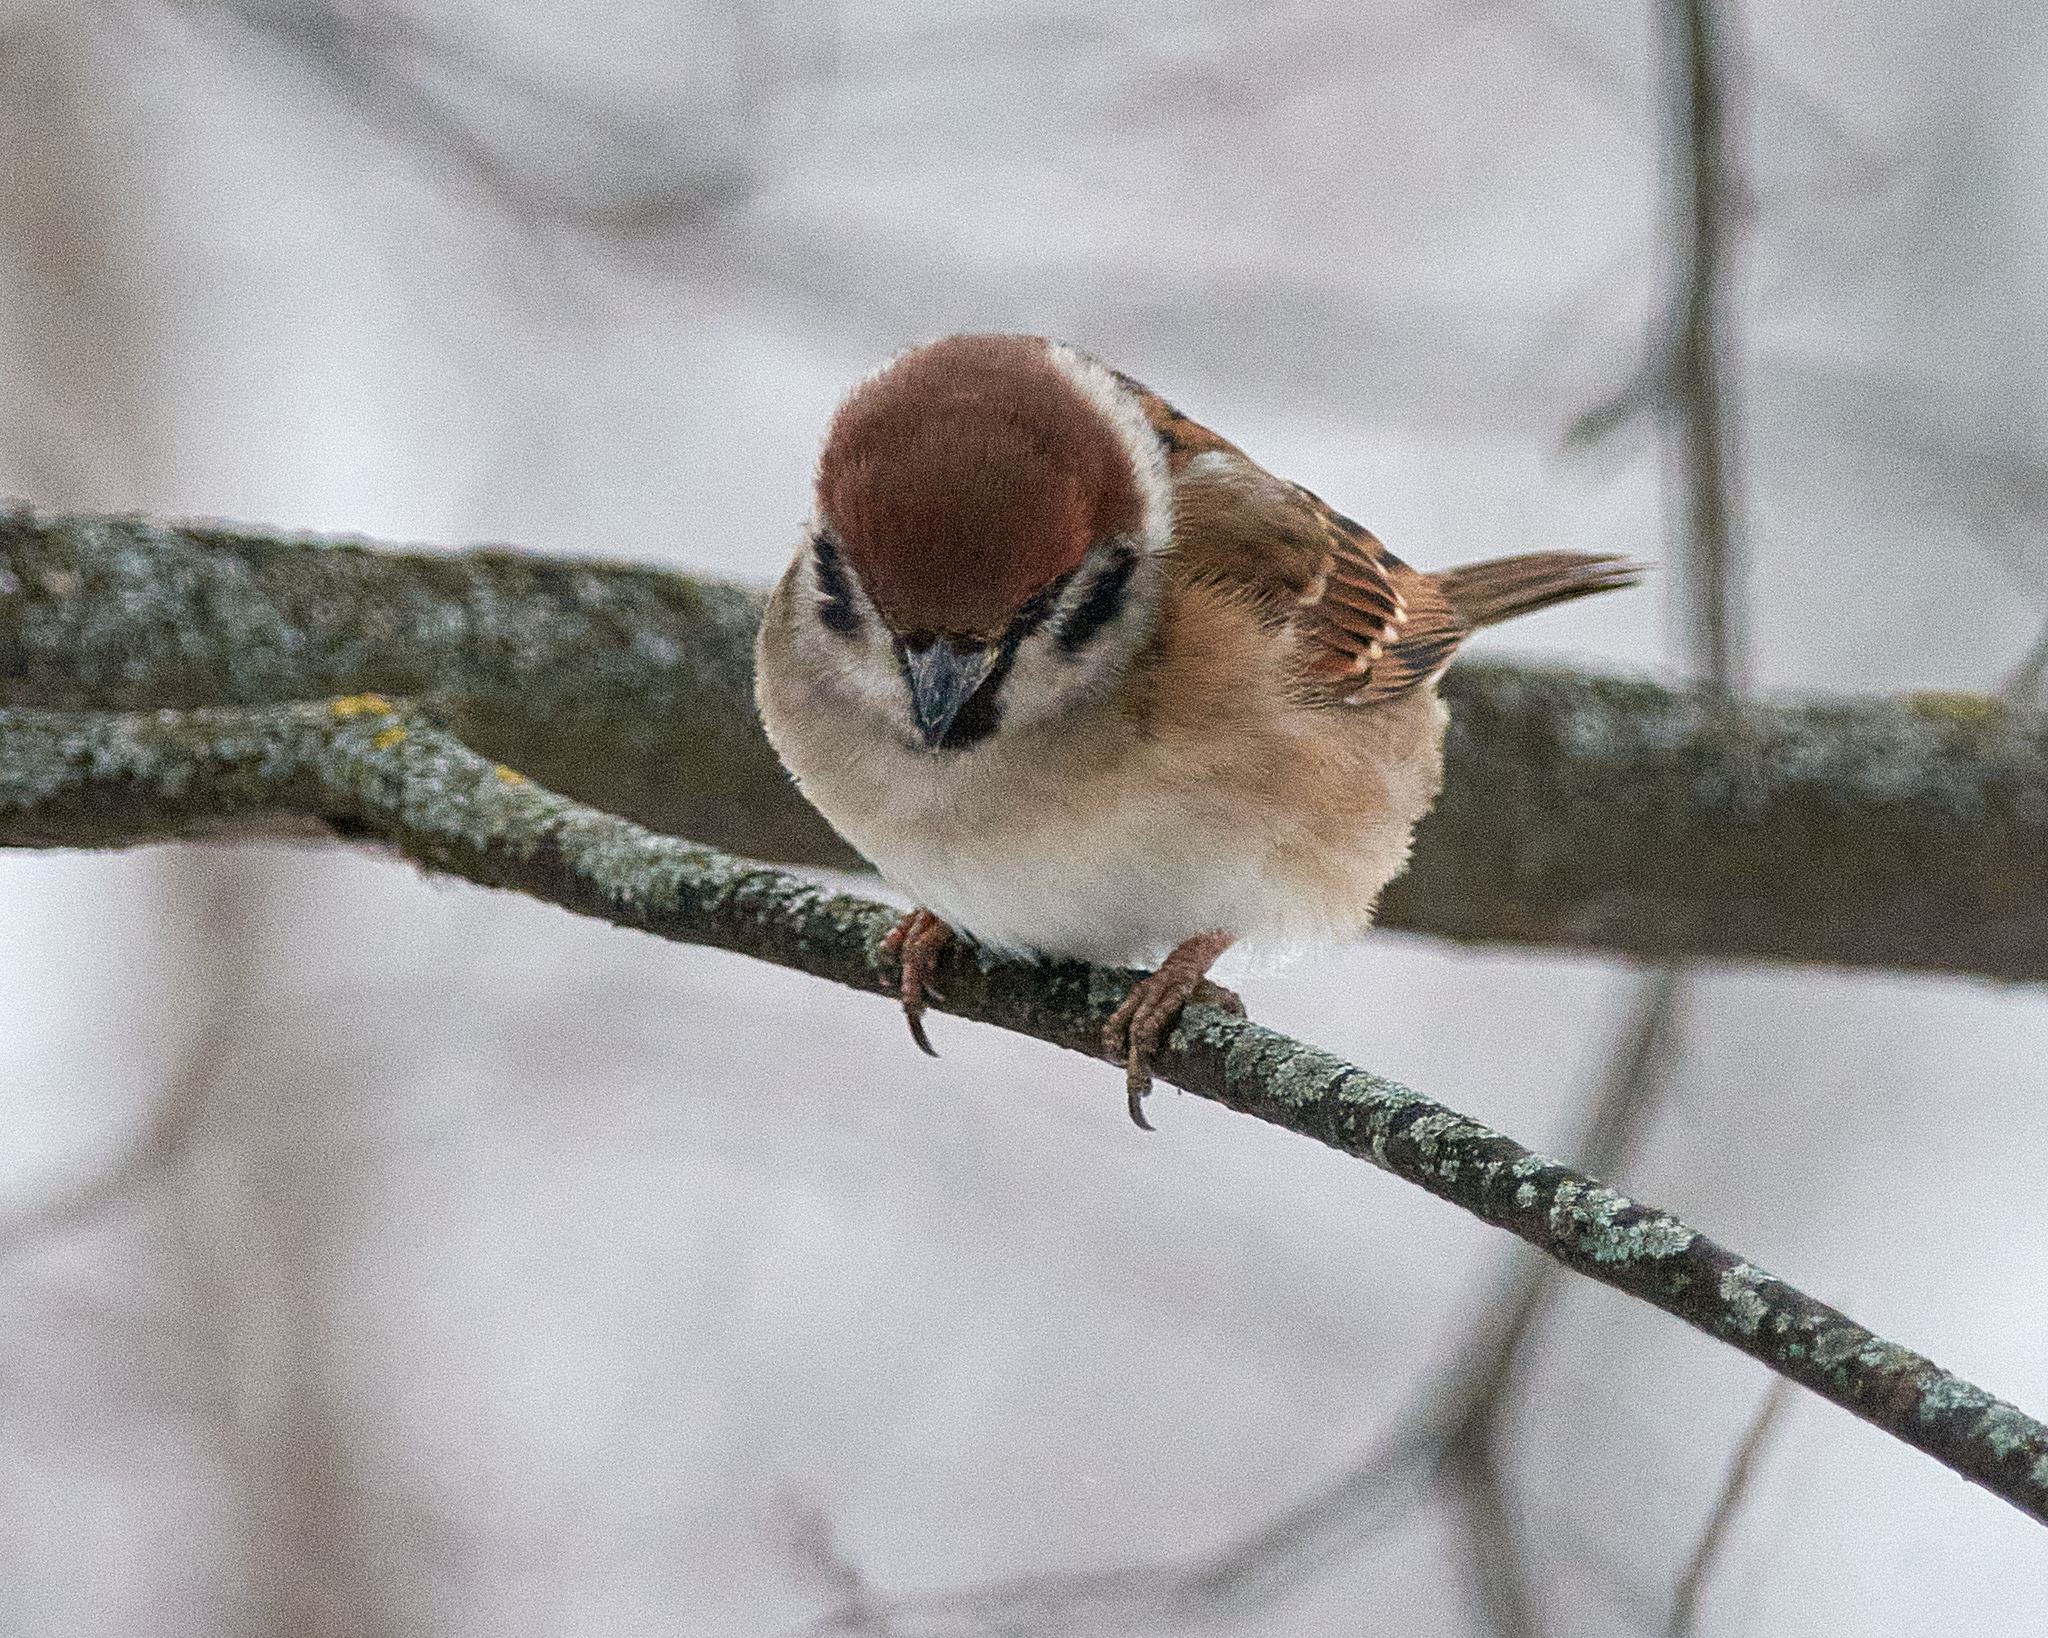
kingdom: Animalia
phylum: Chordata
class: Aves
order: Passeriformes
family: Passeridae
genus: Passer
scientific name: Passer montanus
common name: Eurasian tree sparrow
